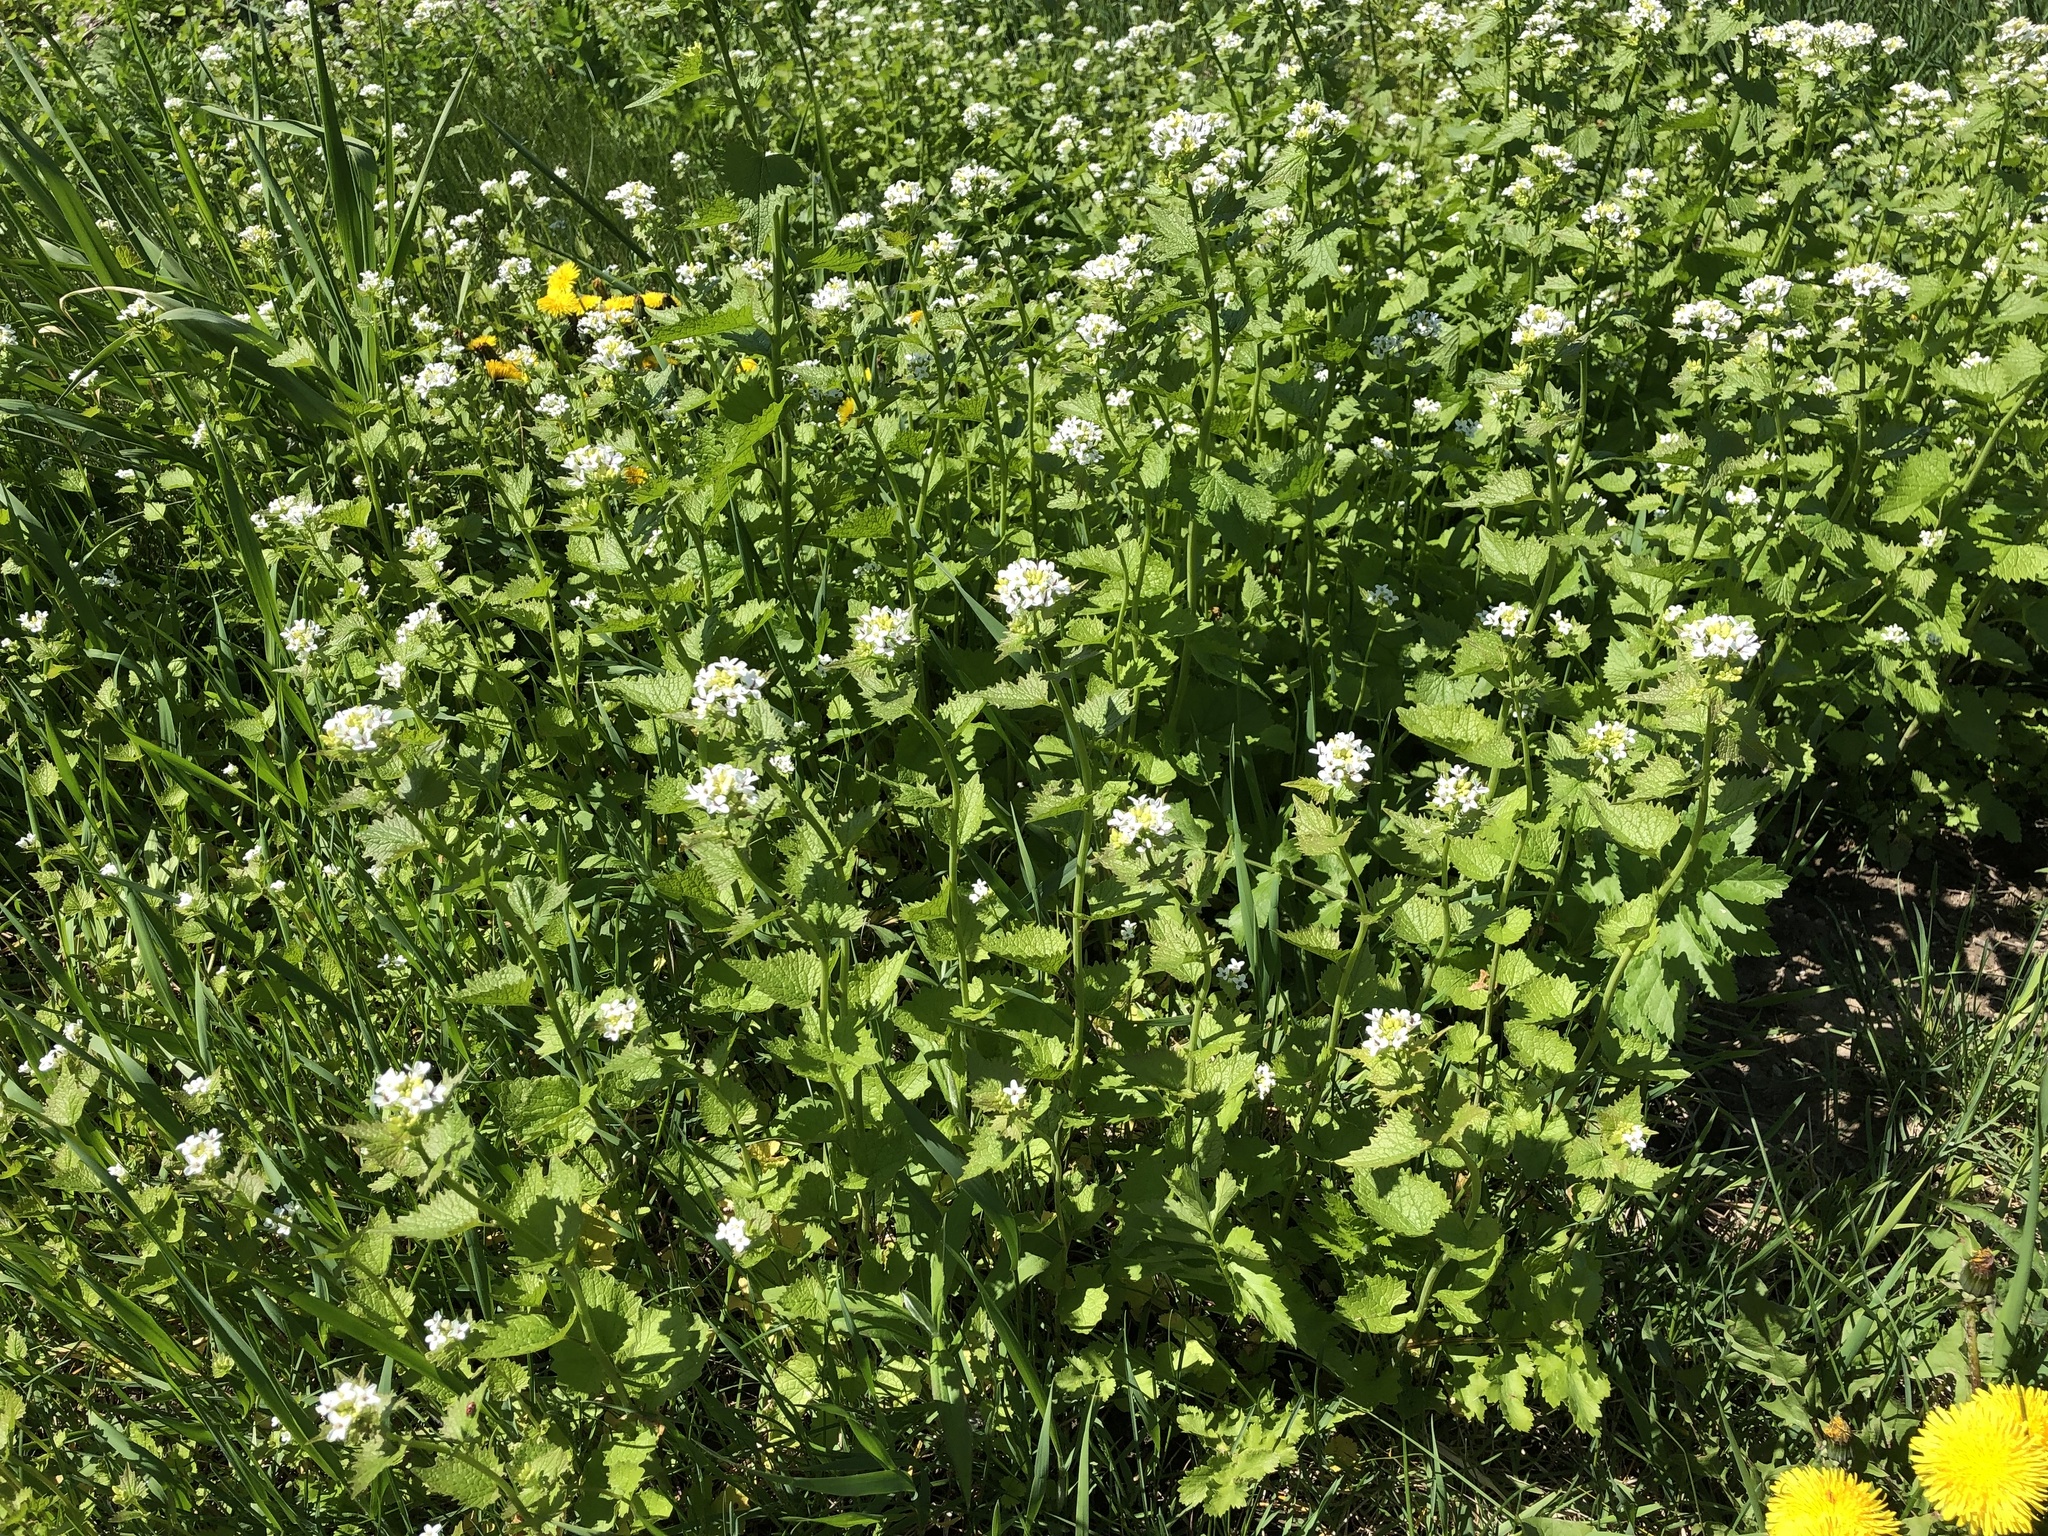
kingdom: Plantae
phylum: Tracheophyta
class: Magnoliopsida
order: Brassicales
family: Brassicaceae
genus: Alliaria
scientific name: Alliaria petiolata
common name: Garlic mustard
